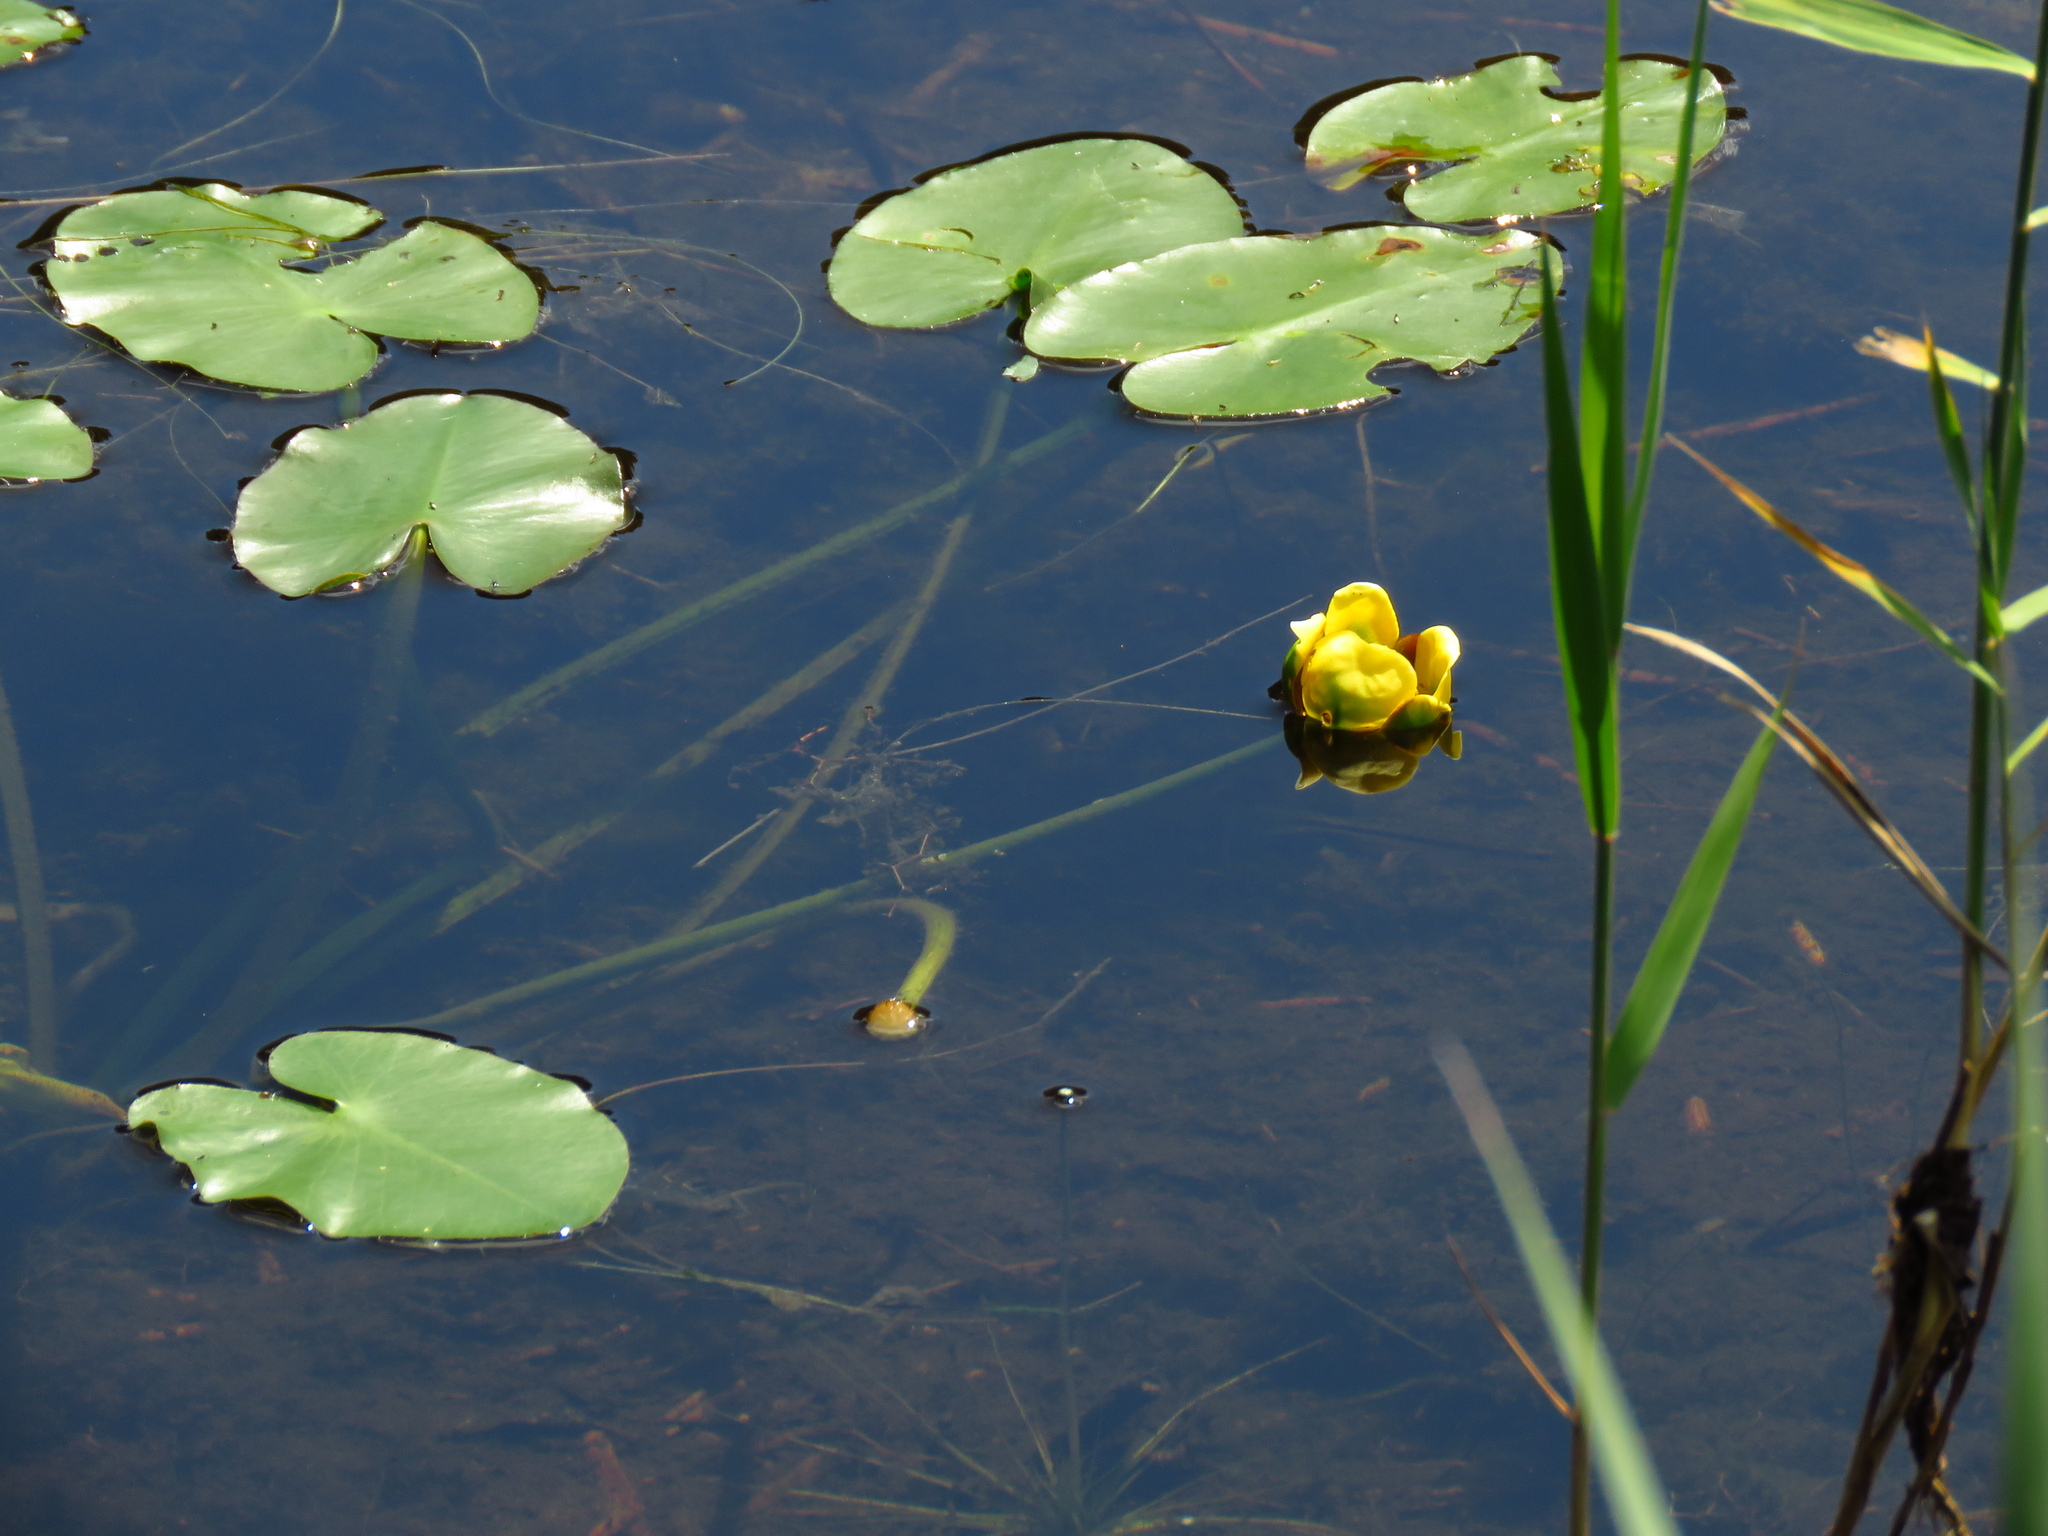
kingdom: Plantae
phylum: Tracheophyta
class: Magnoliopsida
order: Nymphaeales
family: Nymphaeaceae
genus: Nuphar
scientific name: Nuphar advena
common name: Spatter-dock
